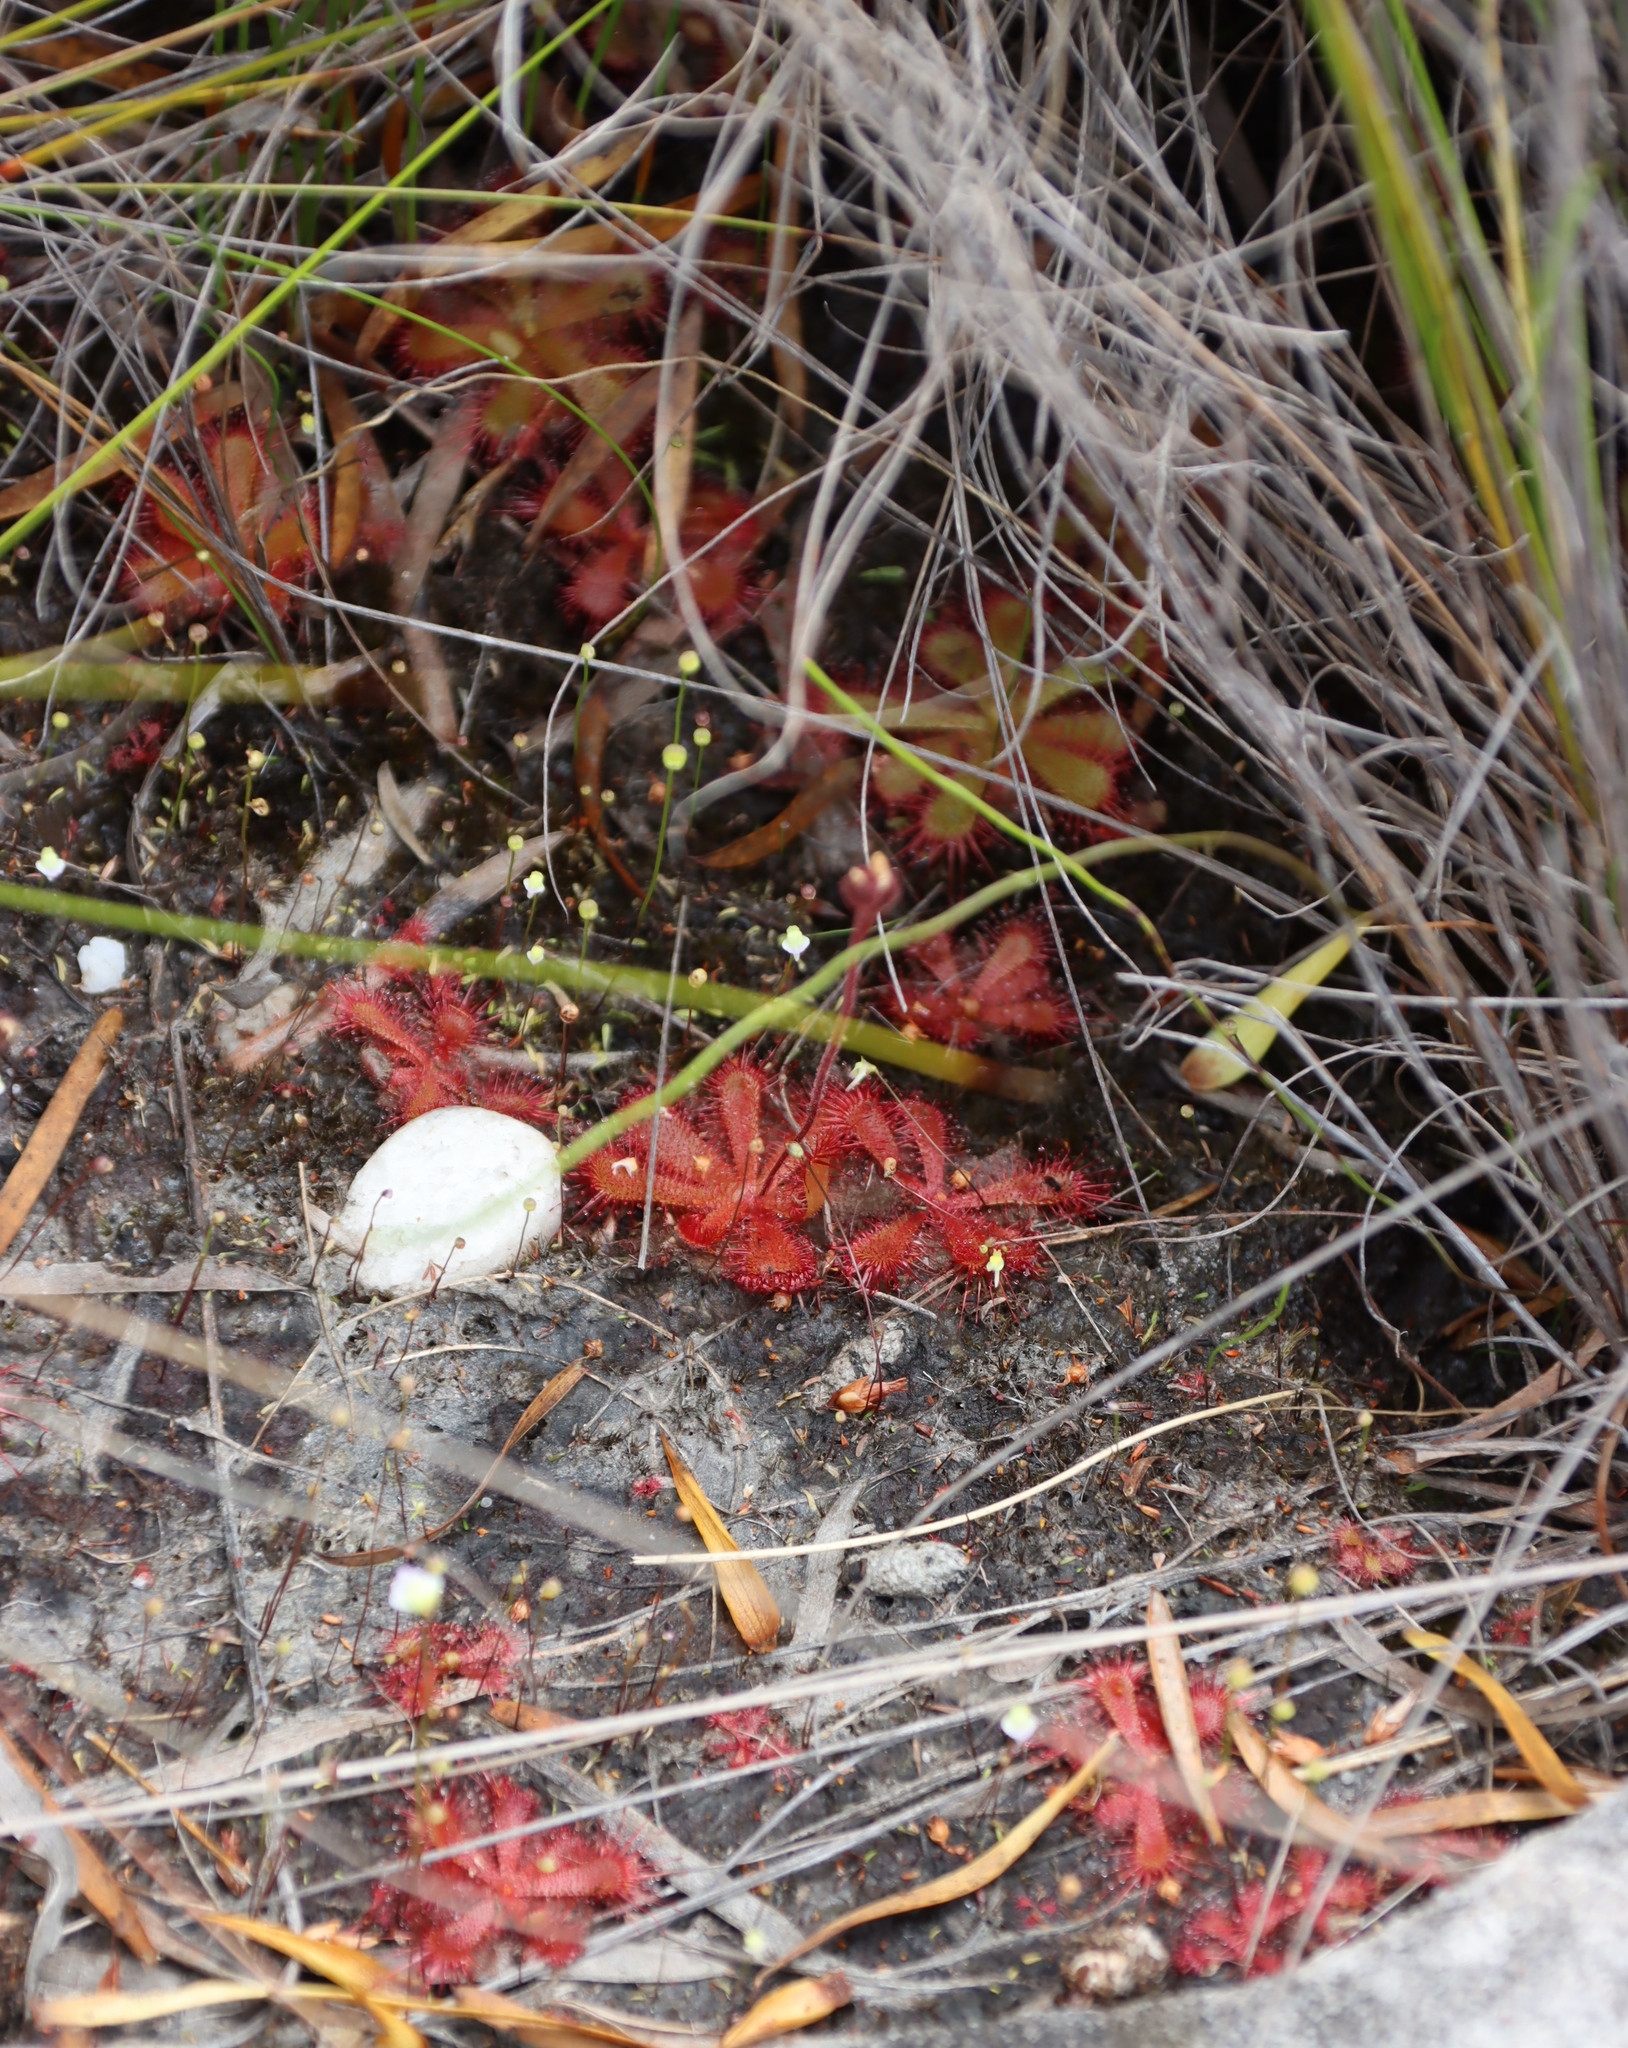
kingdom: Plantae
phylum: Tracheophyta
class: Magnoliopsida
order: Caryophyllales
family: Droseraceae
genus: Drosera
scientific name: Drosera trinervia
